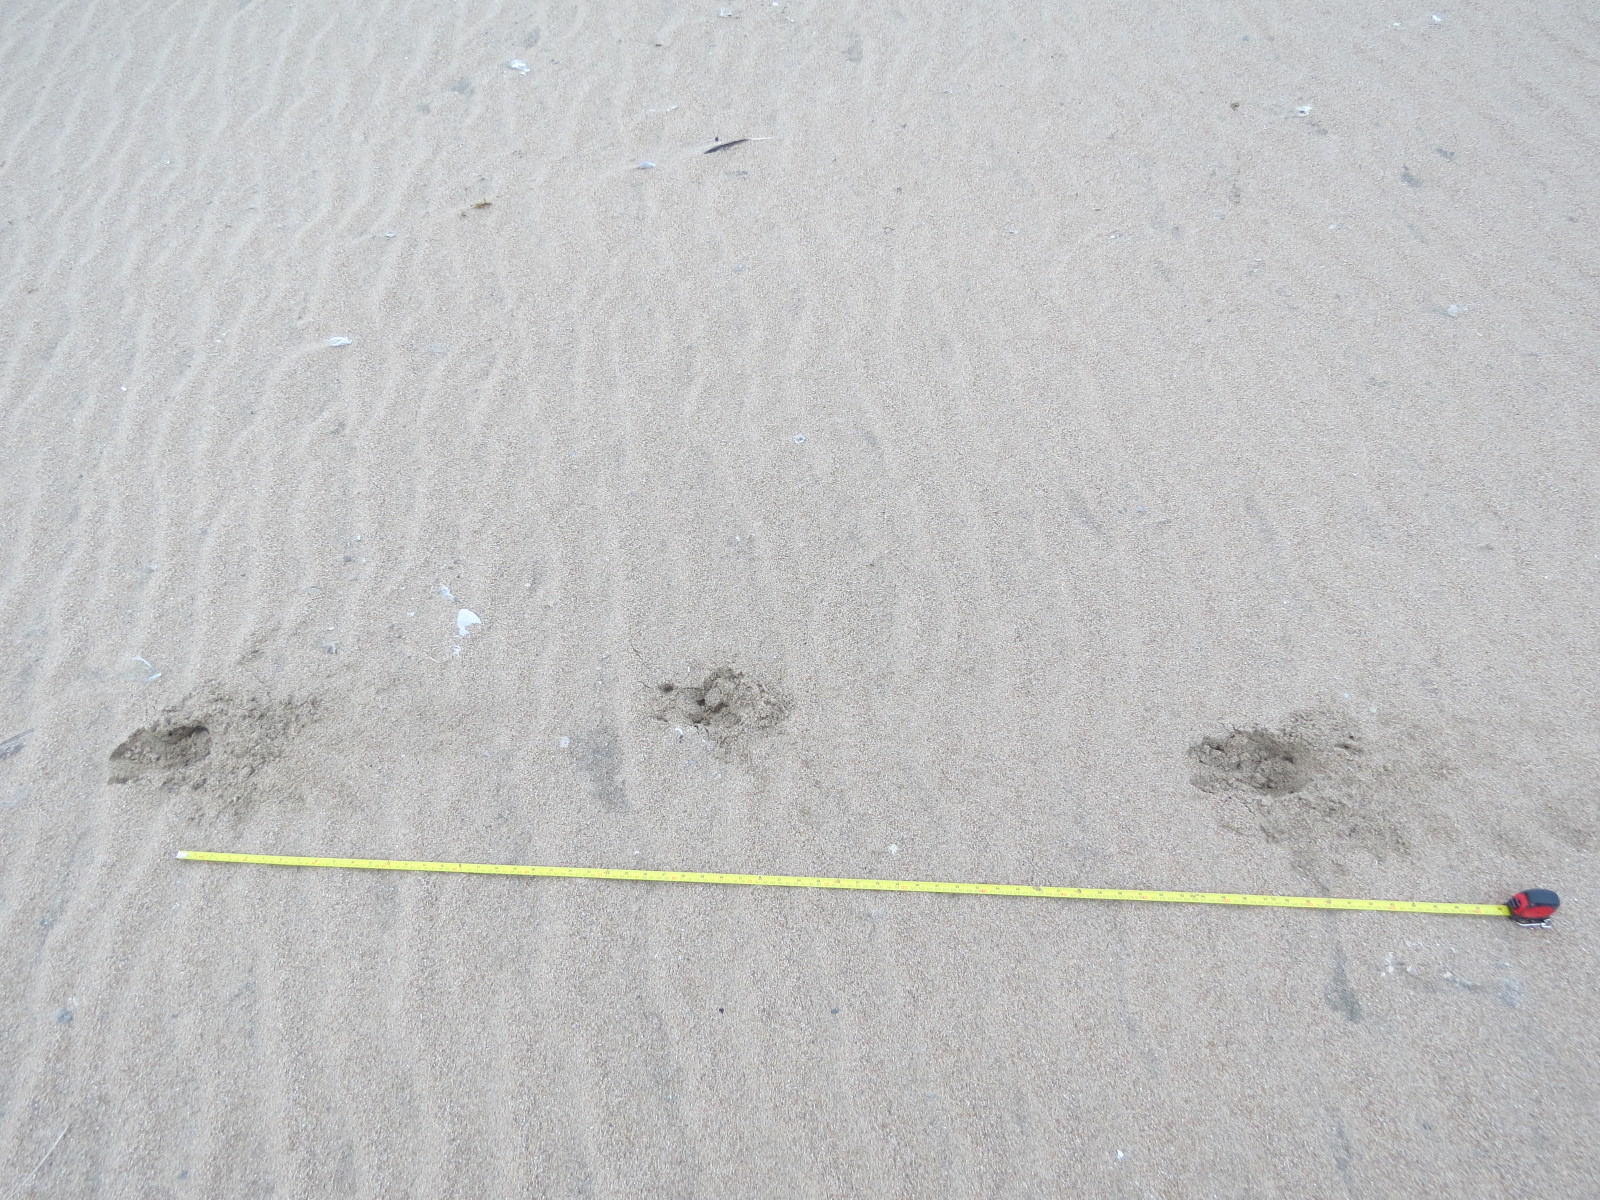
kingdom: Animalia
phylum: Chordata
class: Mammalia
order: Artiodactyla
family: Cervidae
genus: Odocoileus
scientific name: Odocoileus hemionus
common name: Mule deer
